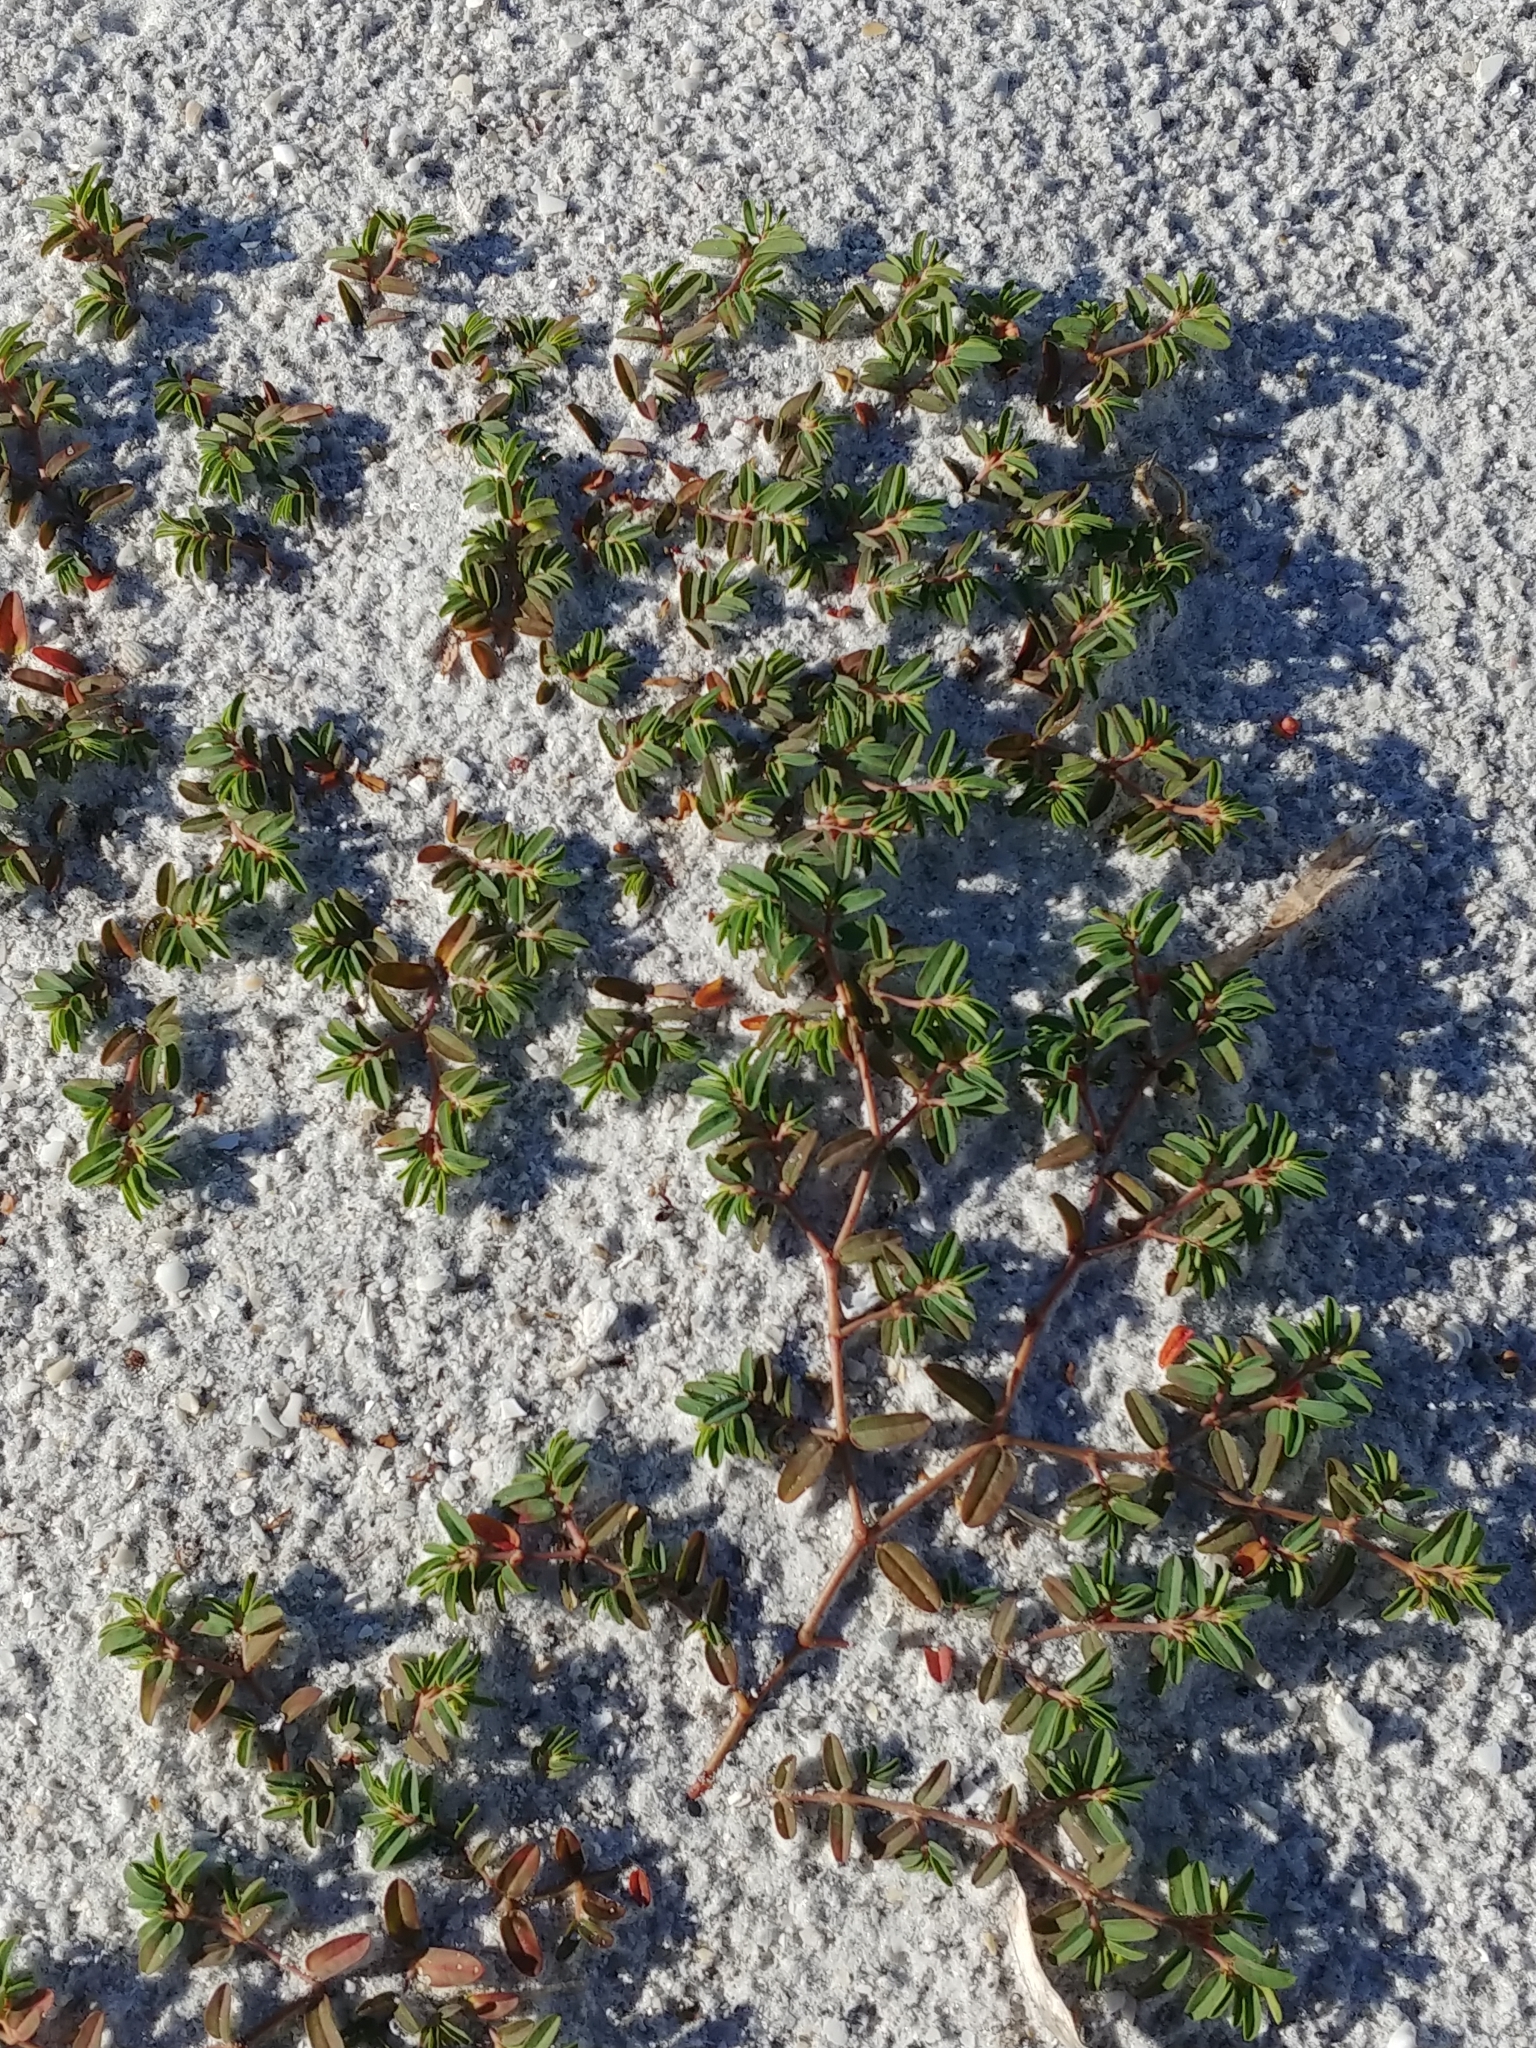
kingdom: Plantae
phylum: Tracheophyta
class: Magnoliopsida
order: Malpighiales
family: Euphorbiaceae
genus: Euphorbia
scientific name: Euphorbia bombensis
